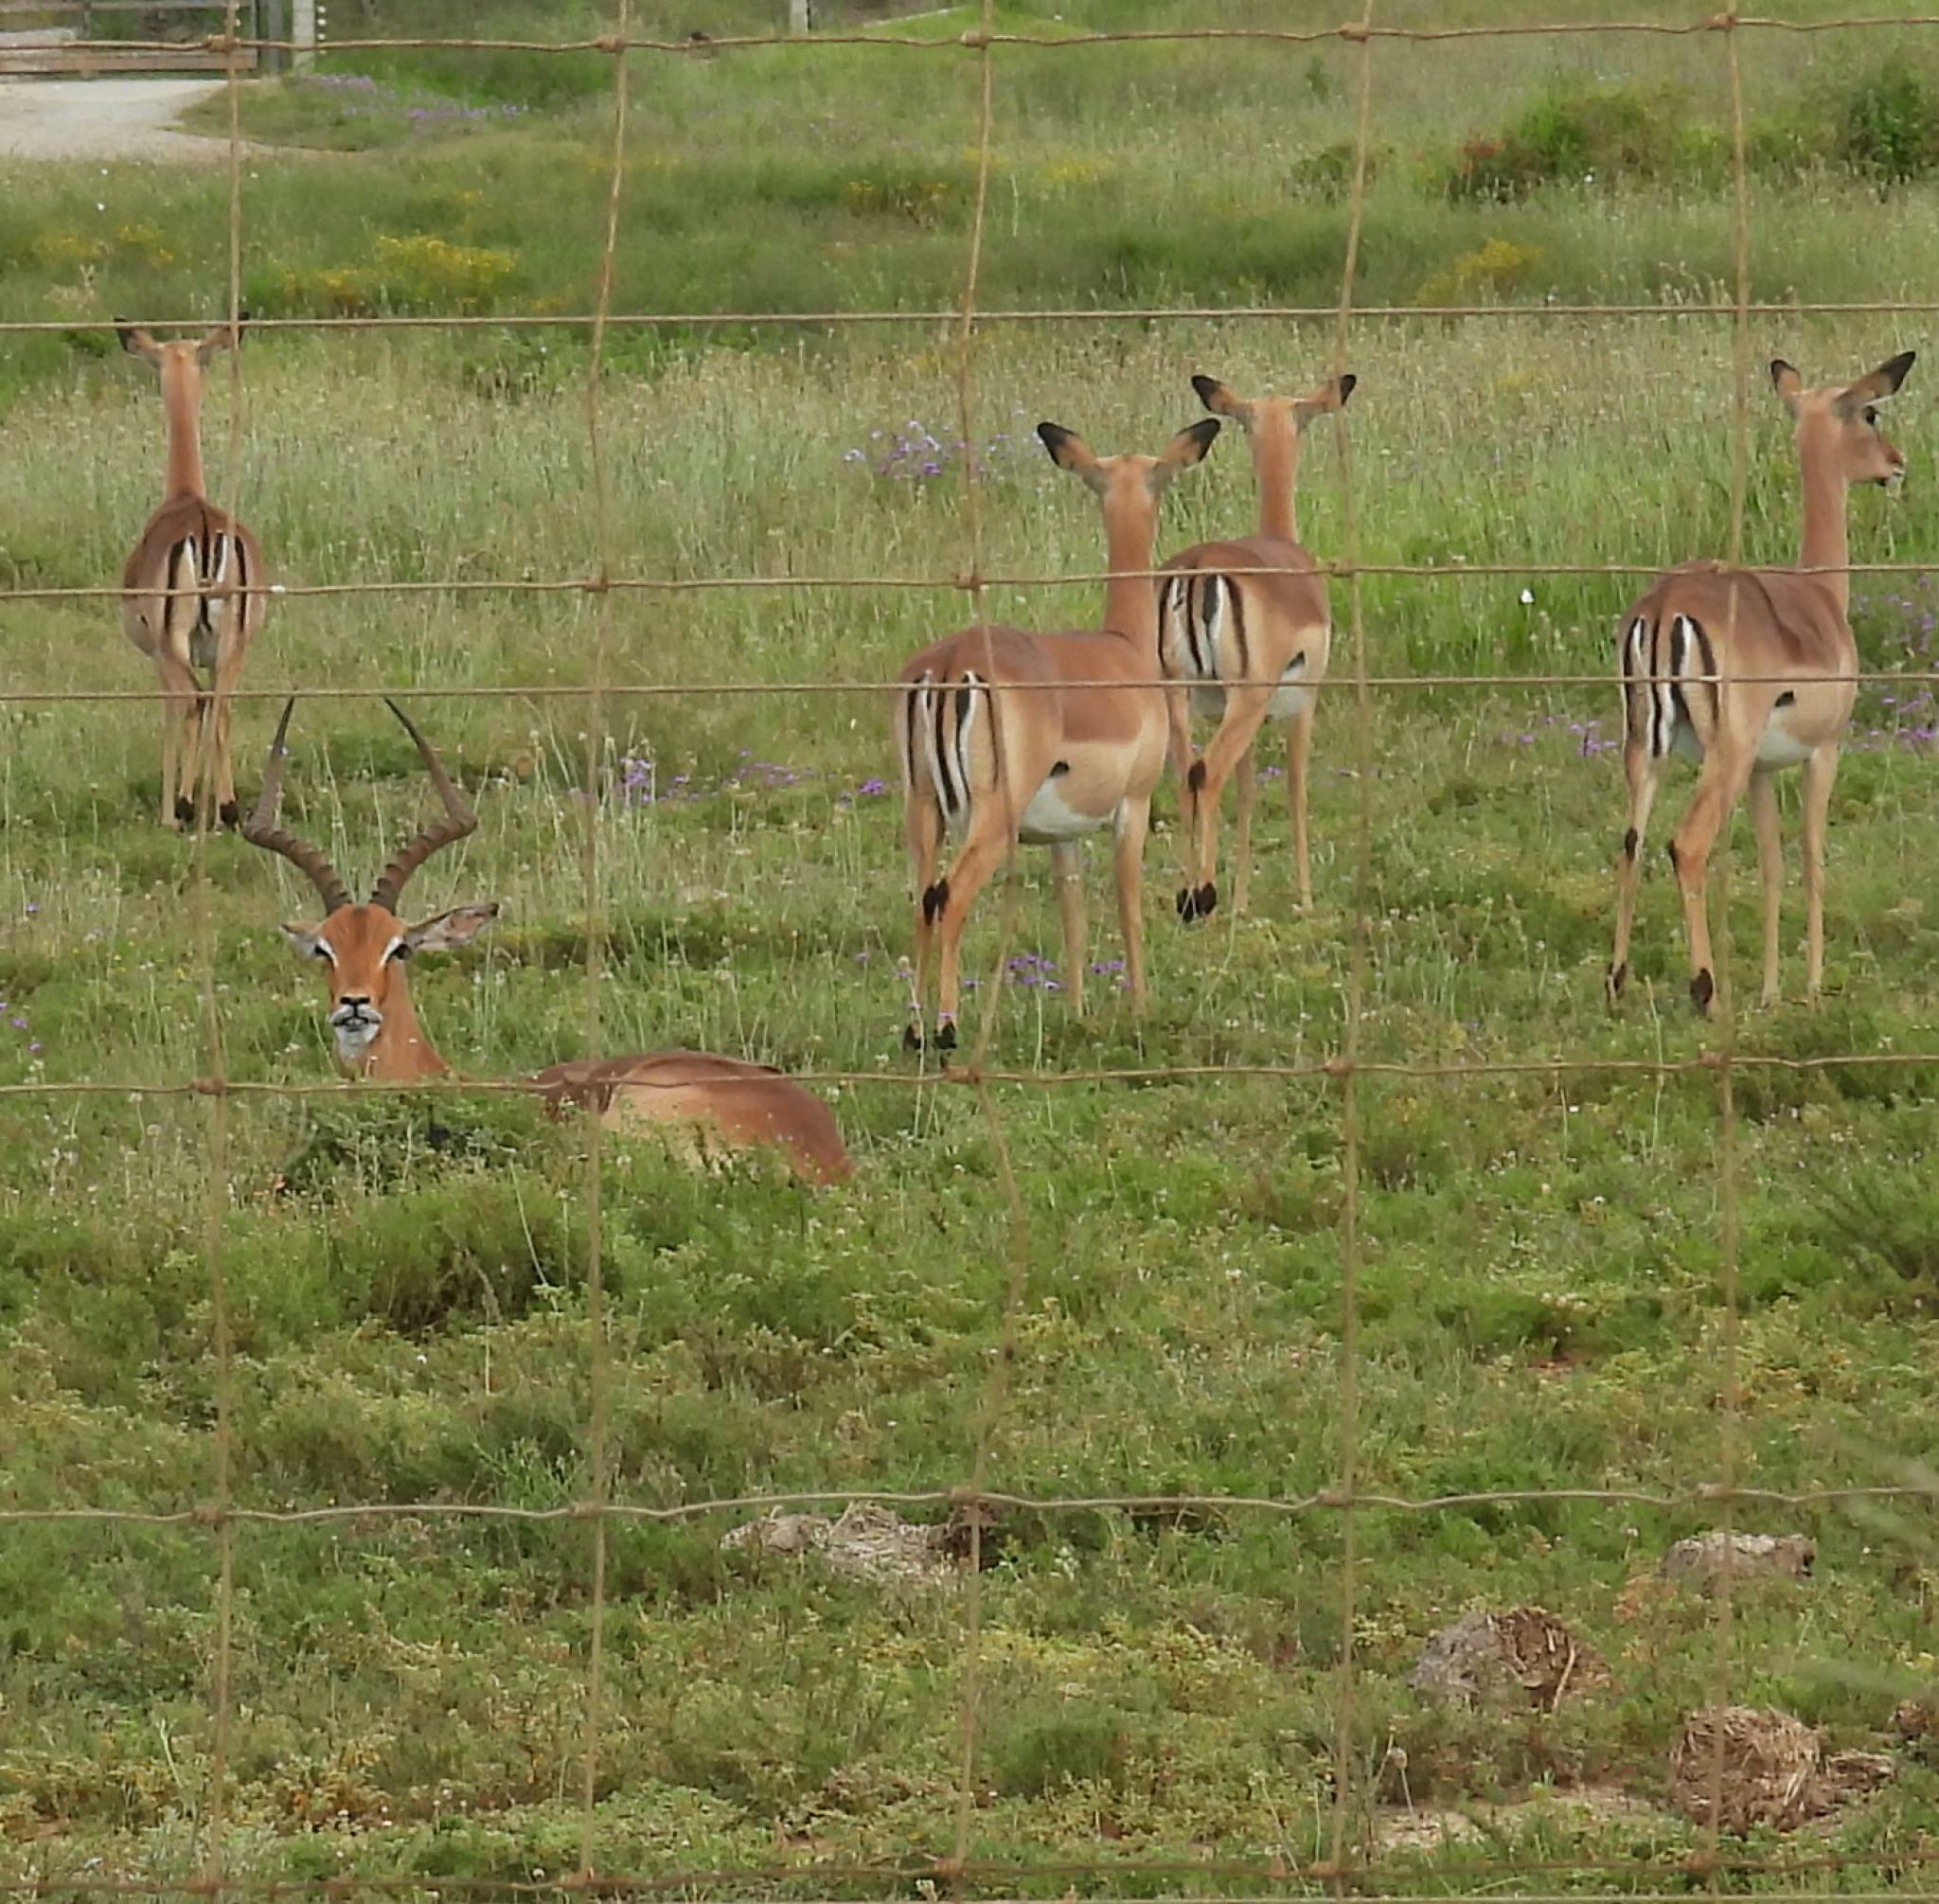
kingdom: Animalia
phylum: Chordata
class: Mammalia
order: Artiodactyla
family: Bovidae
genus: Aepyceros
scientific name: Aepyceros melampus
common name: Impala
